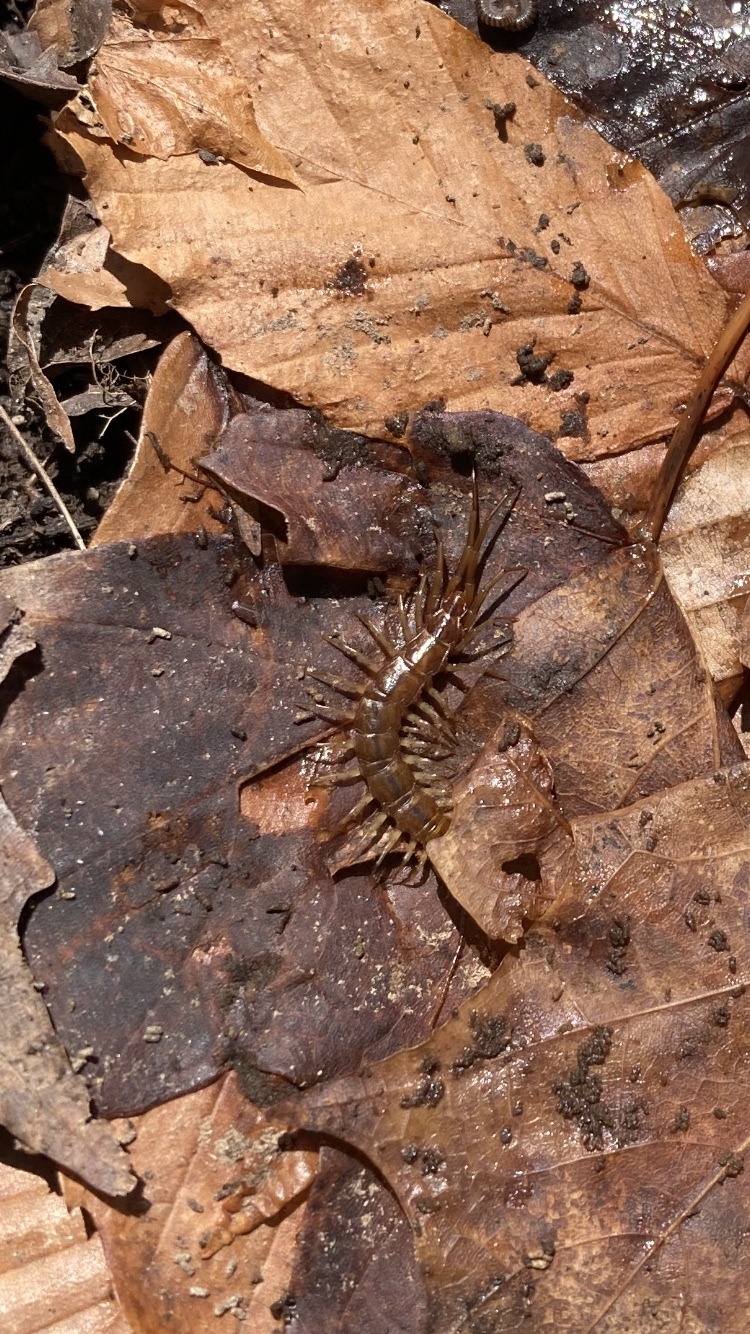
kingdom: Animalia
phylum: Arthropoda
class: Chilopoda
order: Lithobiomorpha
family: Lithobiidae
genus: Lithobius
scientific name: Lithobius forficatus
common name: Centipede
